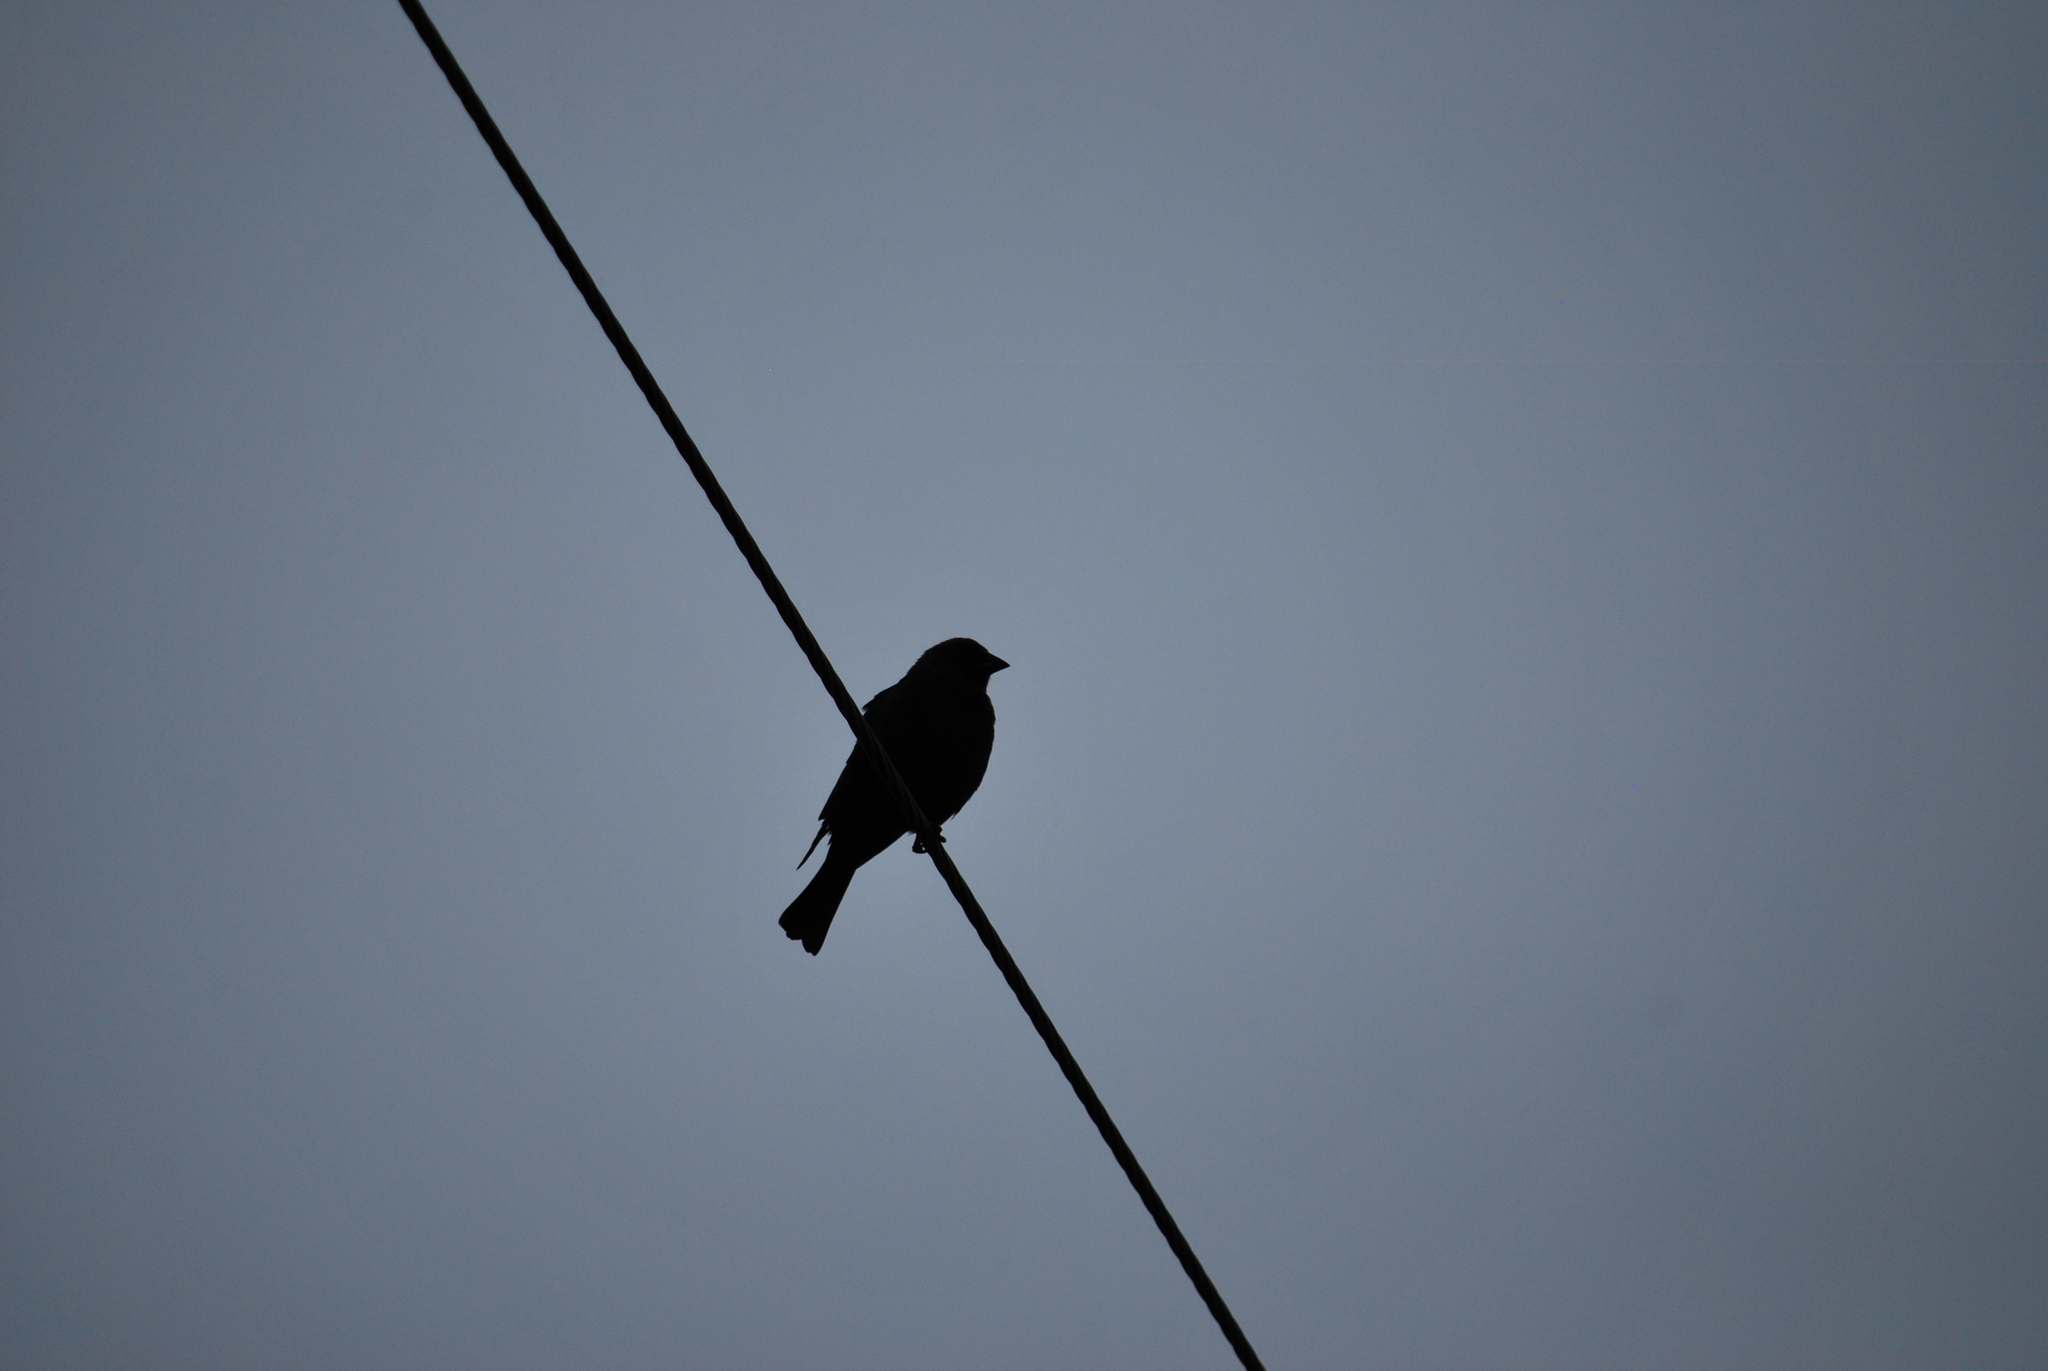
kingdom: Animalia
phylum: Chordata
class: Aves
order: Passeriformes
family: Icteridae
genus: Molothrus
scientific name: Molothrus ater
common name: Brown-headed cowbird
